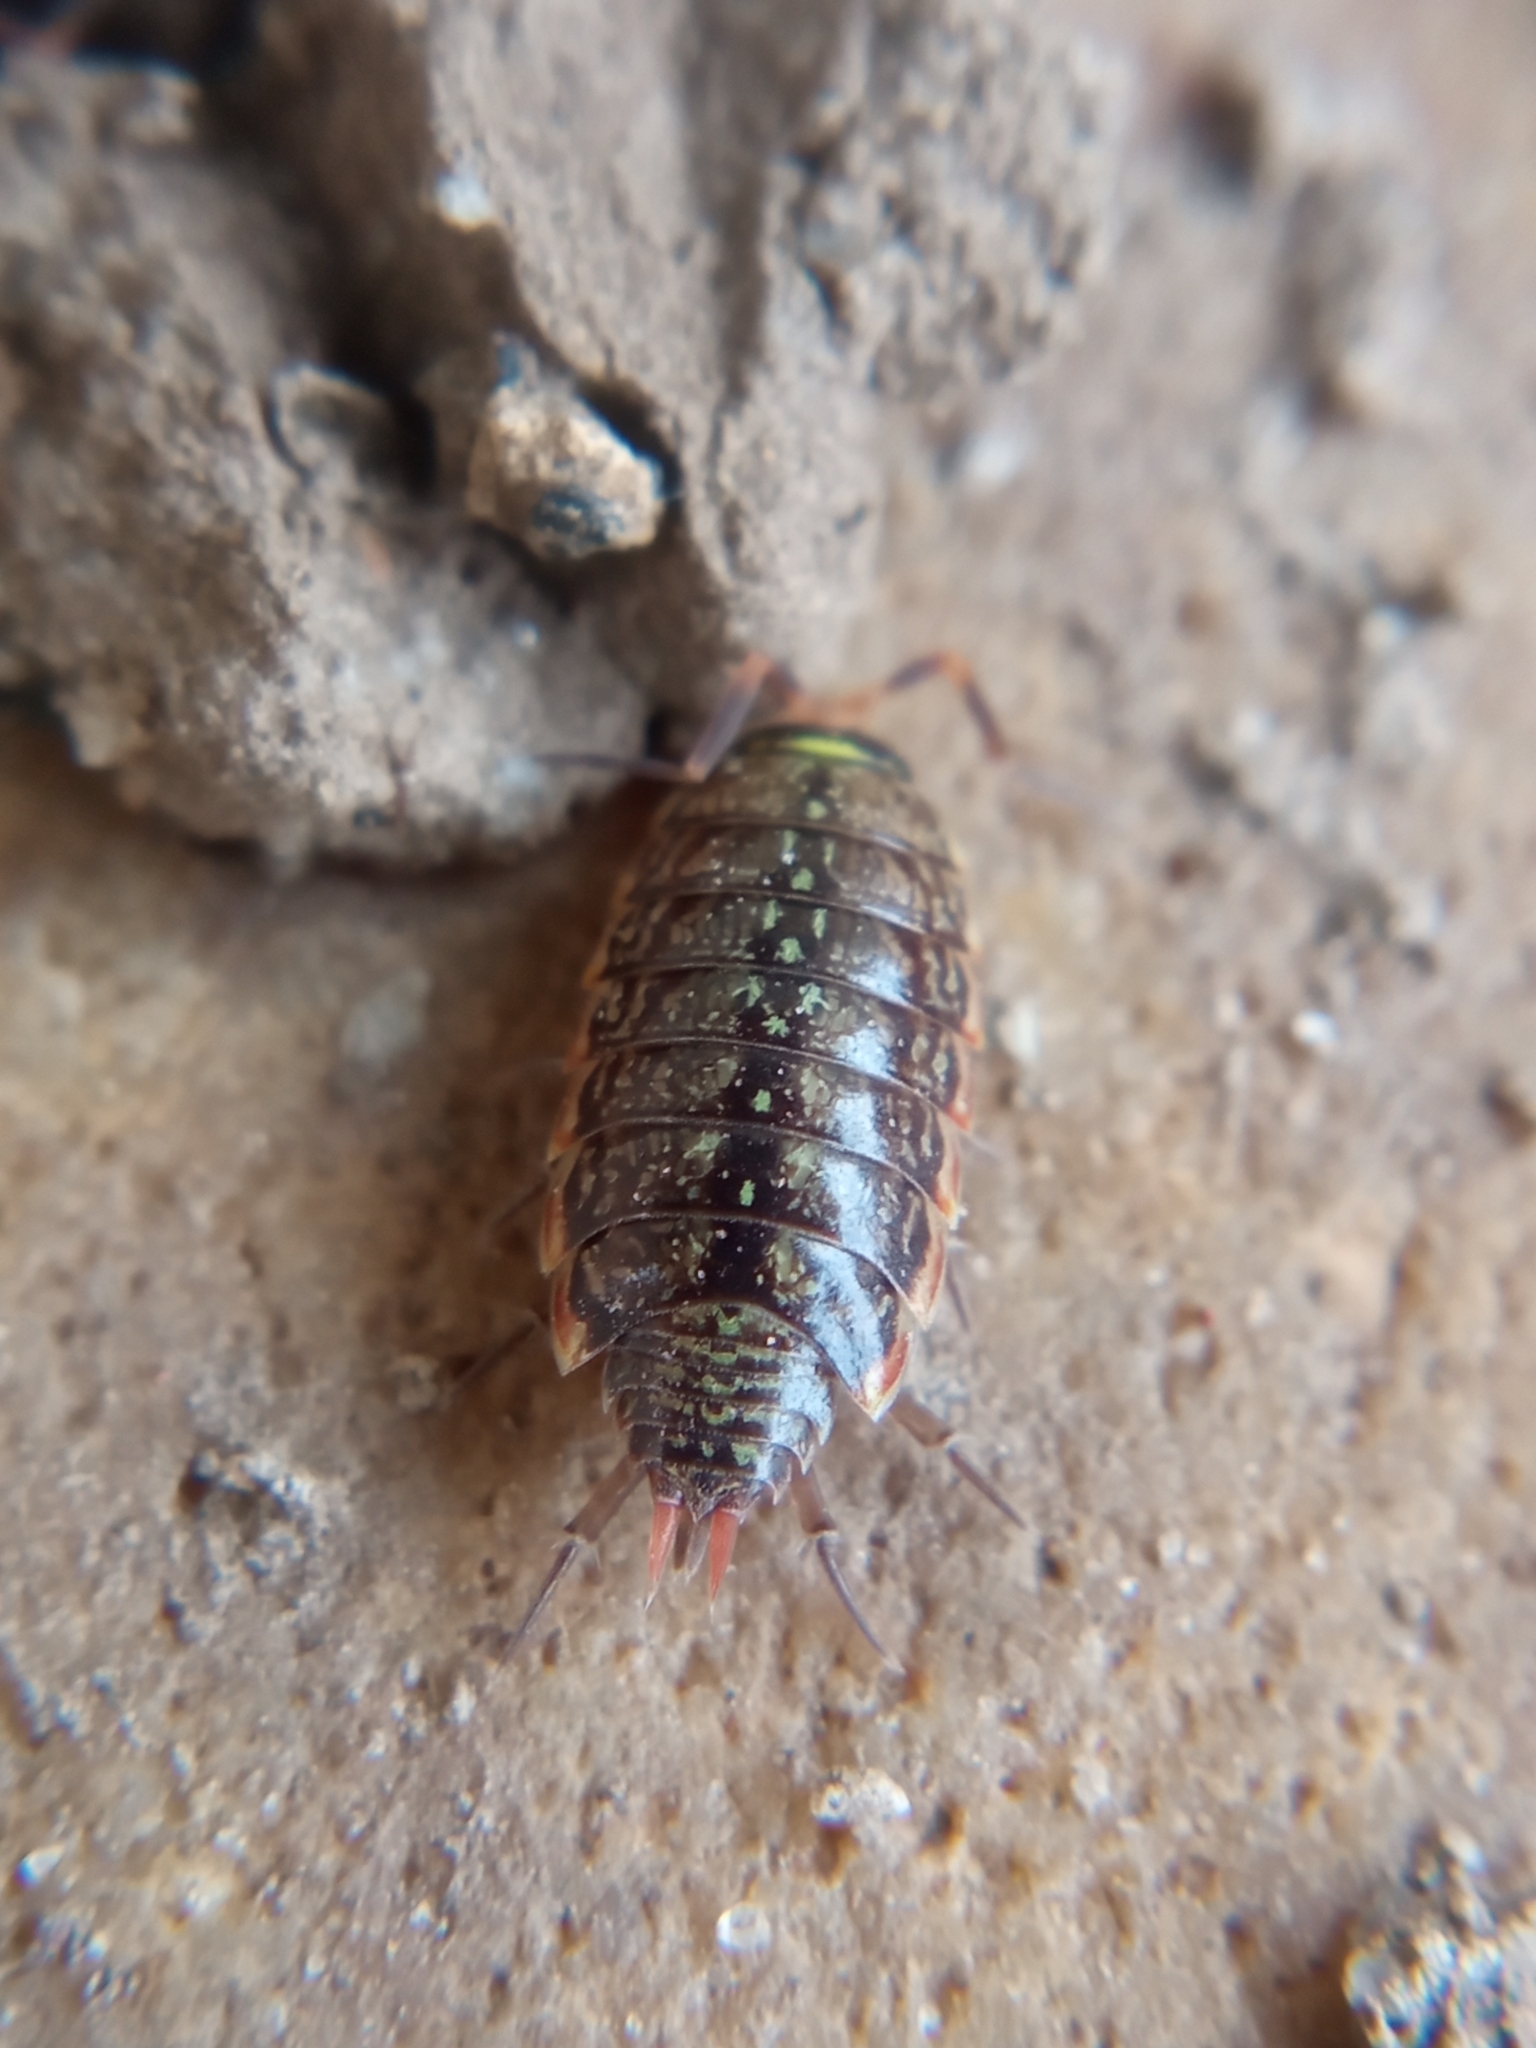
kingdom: Animalia
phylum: Arthropoda
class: Malacostraca
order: Isopoda
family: Philosciidae
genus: Philoscia
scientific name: Philoscia muscorum
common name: Common striped woodlouse
